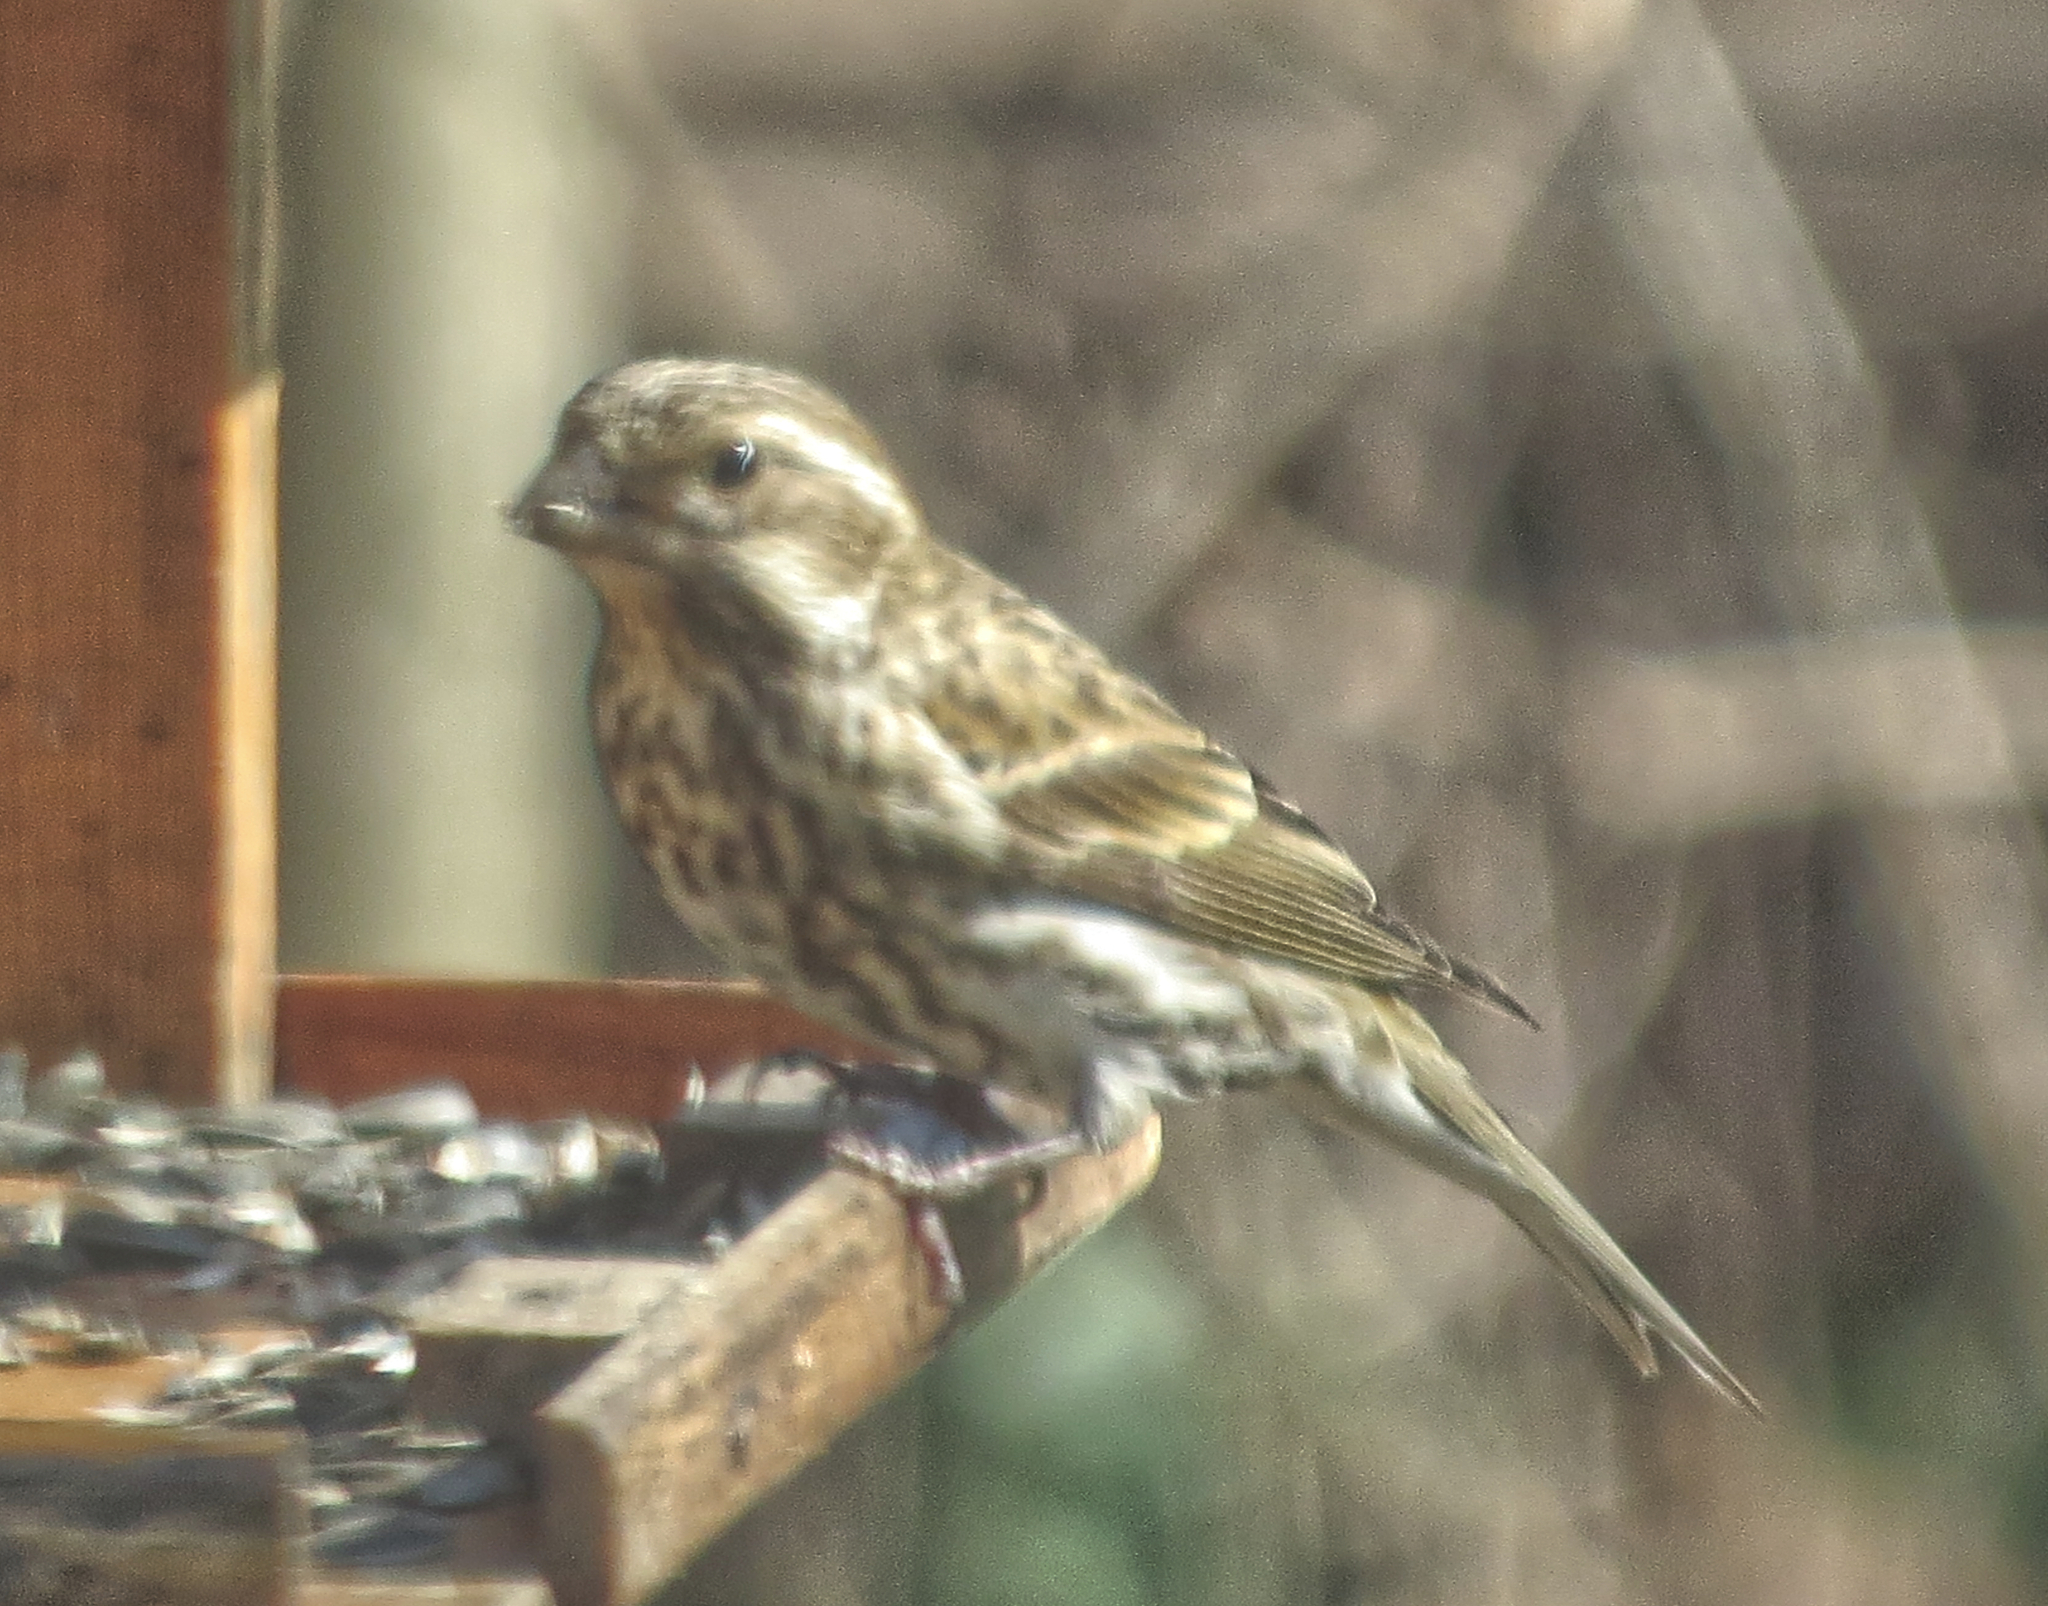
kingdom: Animalia
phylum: Chordata
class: Aves
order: Passeriformes
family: Fringillidae
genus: Haemorhous
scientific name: Haemorhous purpureus
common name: Purple finch
